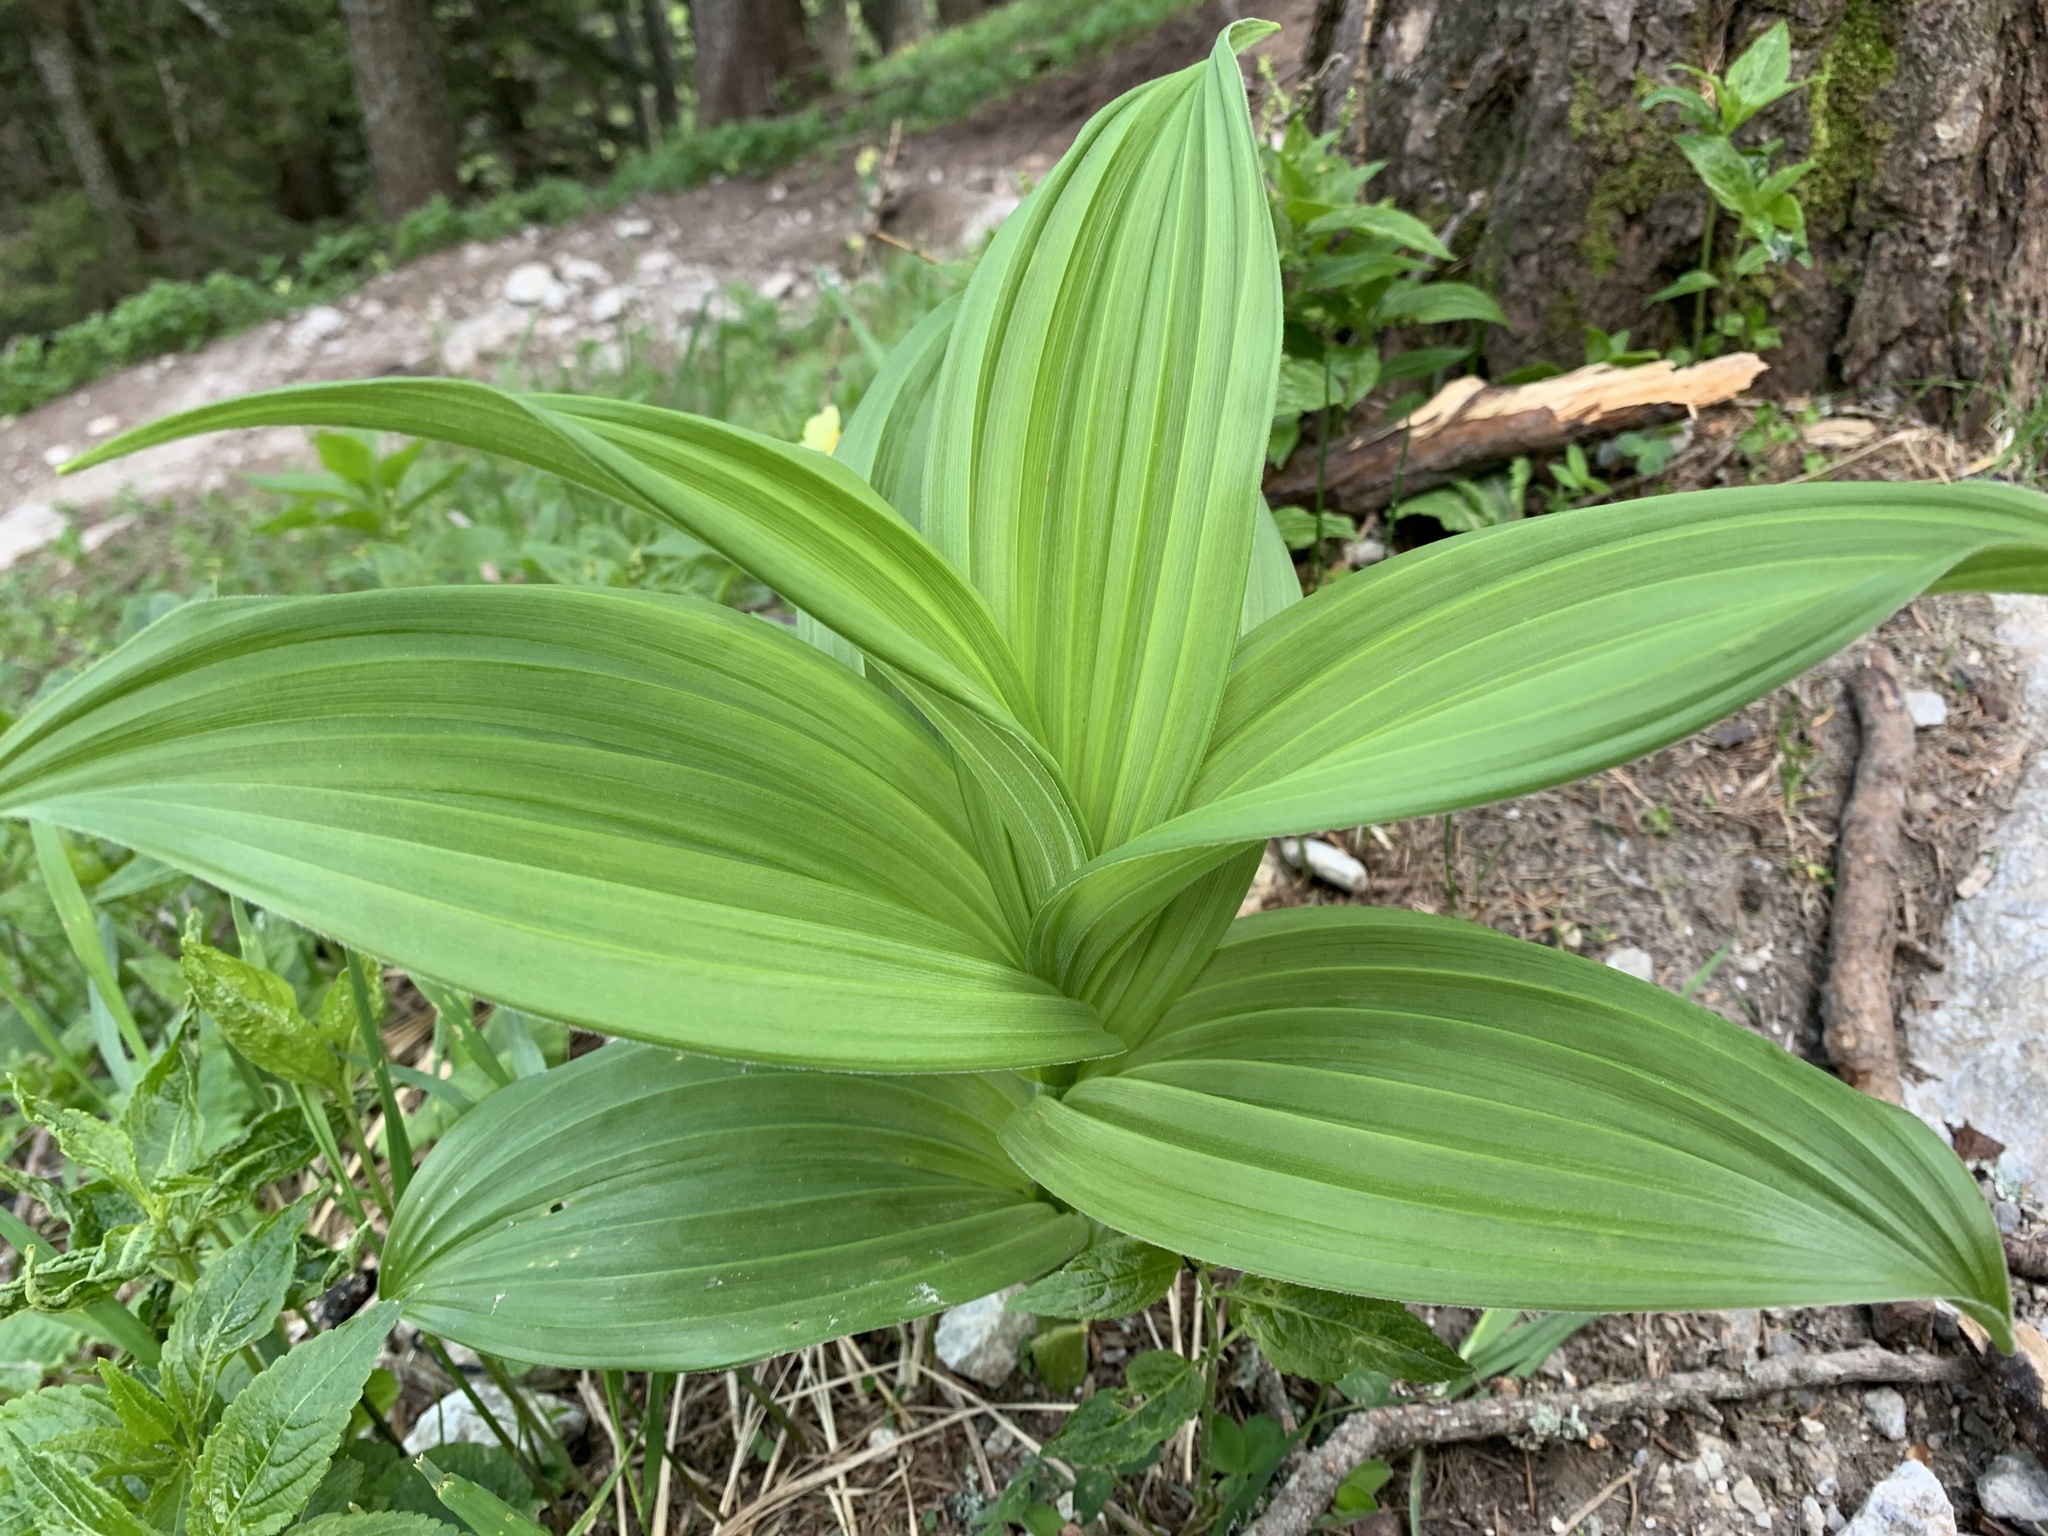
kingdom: Plantae
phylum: Tracheophyta
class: Liliopsida
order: Liliales
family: Melanthiaceae
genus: Veratrum
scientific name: Veratrum album
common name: White veratrum
